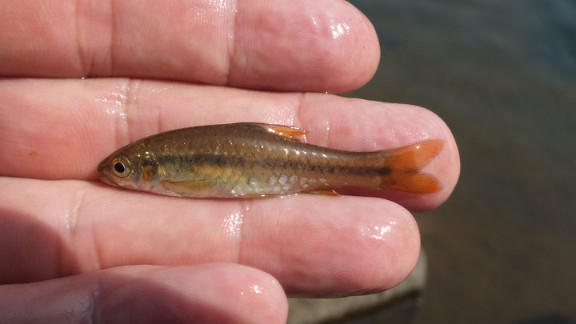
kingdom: Animalia
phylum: Chordata
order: Cypriniformes
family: Cyprinidae
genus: Enteromius
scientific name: Enteromius eutaenia
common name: Orangefin barb
